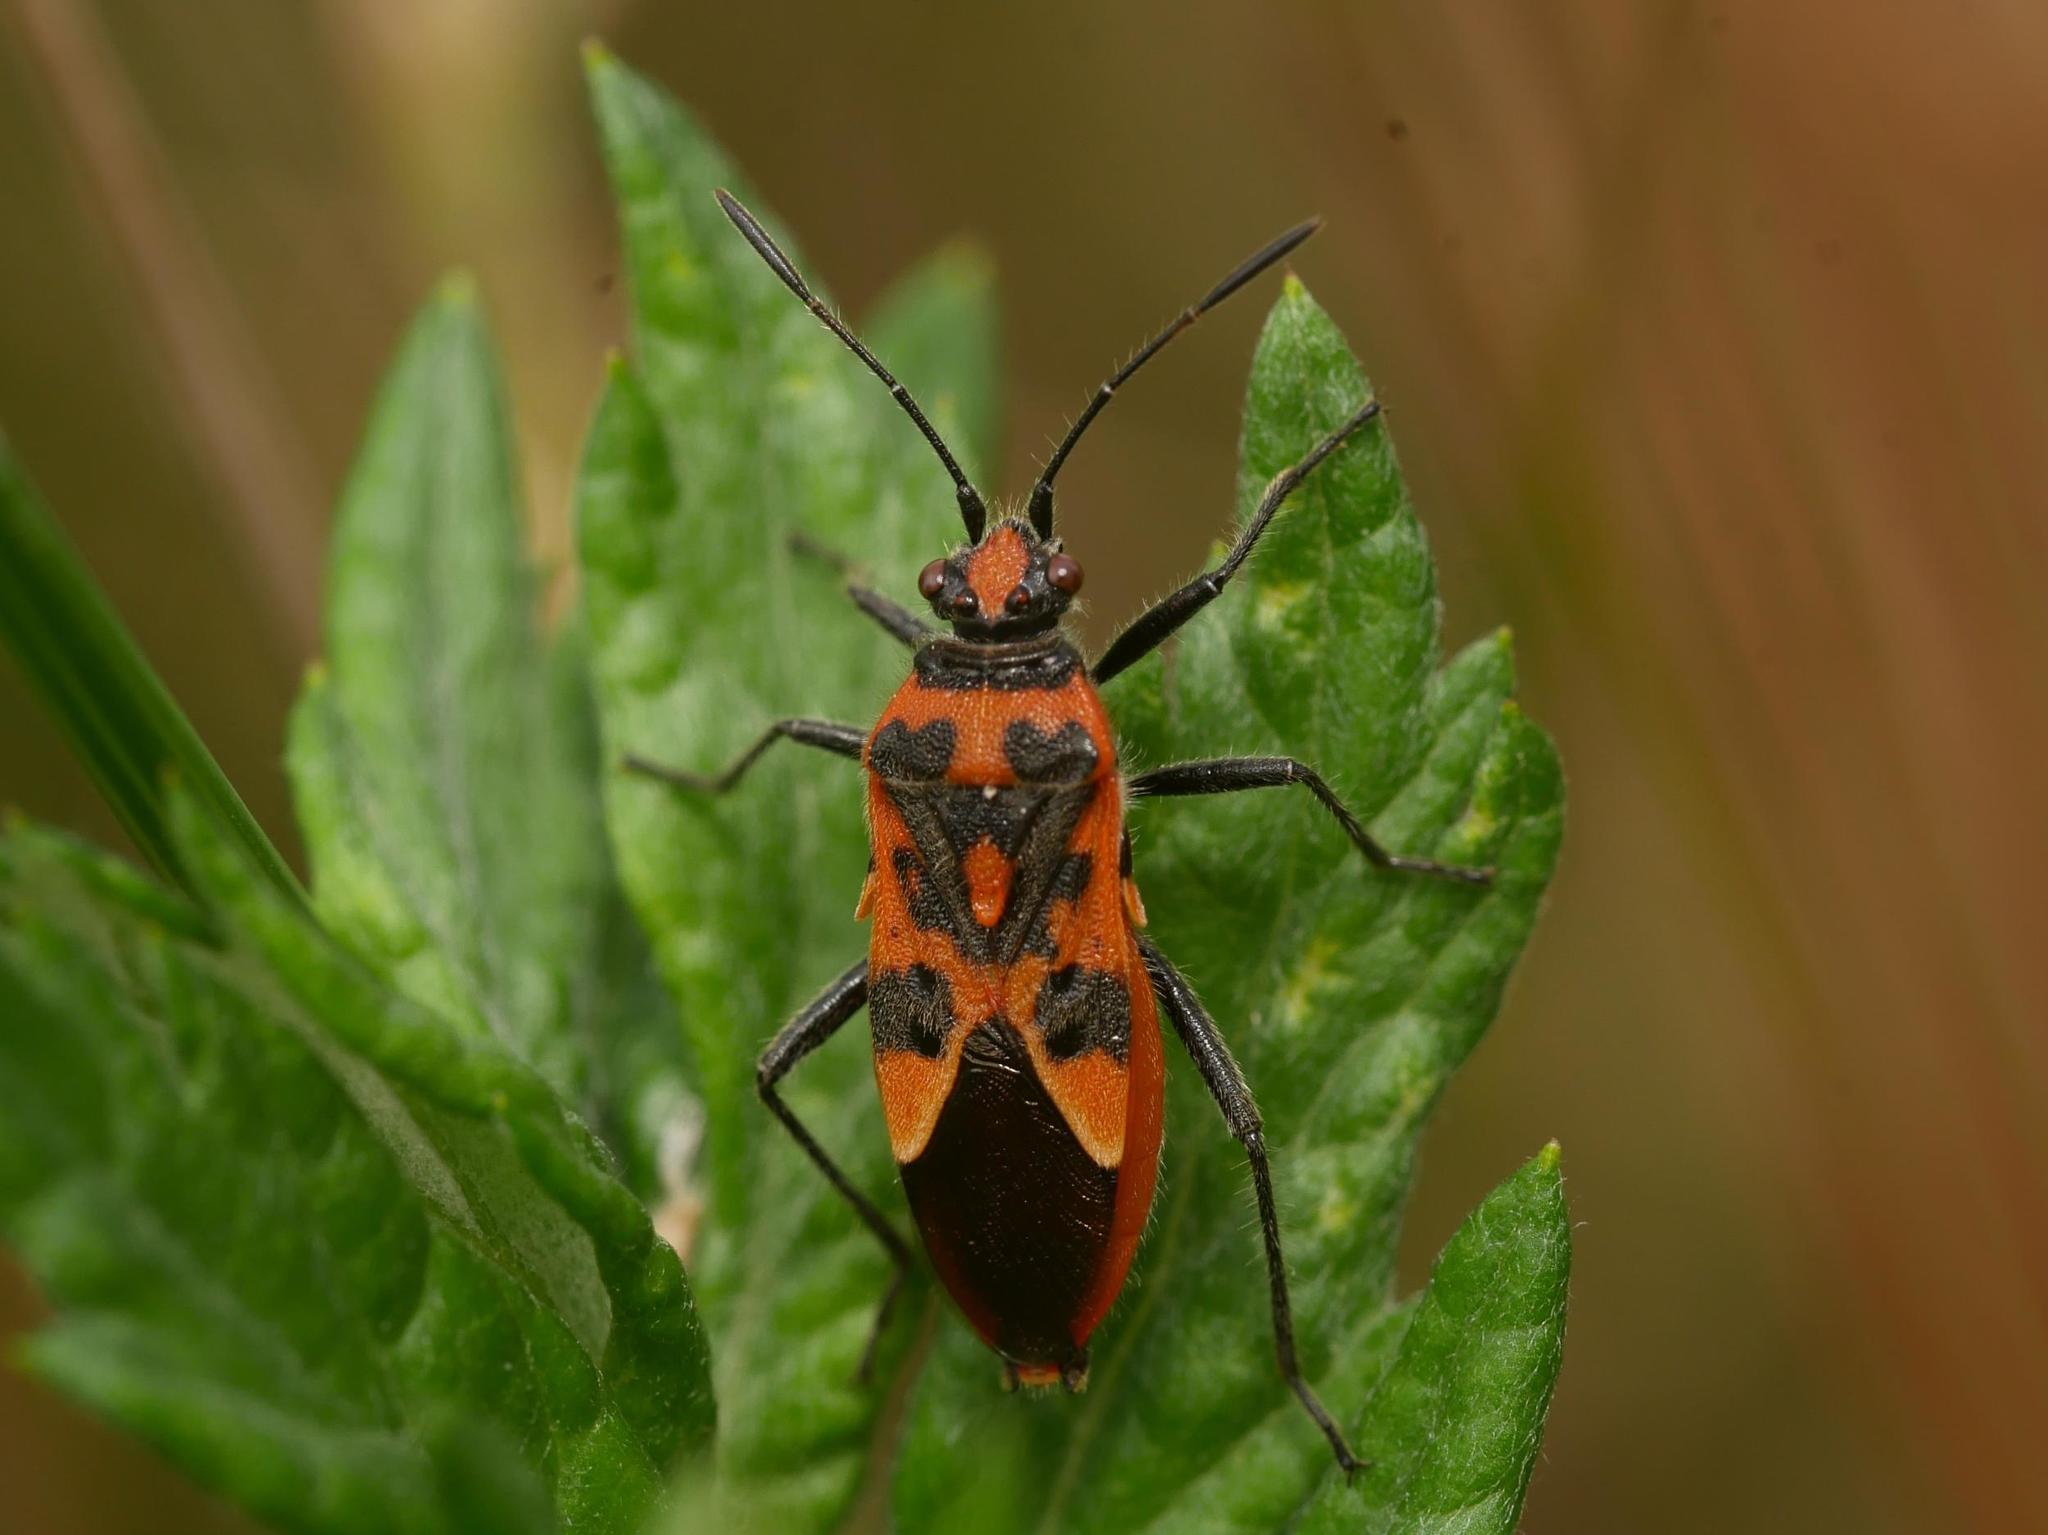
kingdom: Animalia
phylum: Arthropoda
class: Insecta
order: Hemiptera
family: Rhopalidae
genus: Corizus
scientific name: Corizus hyoscyami
